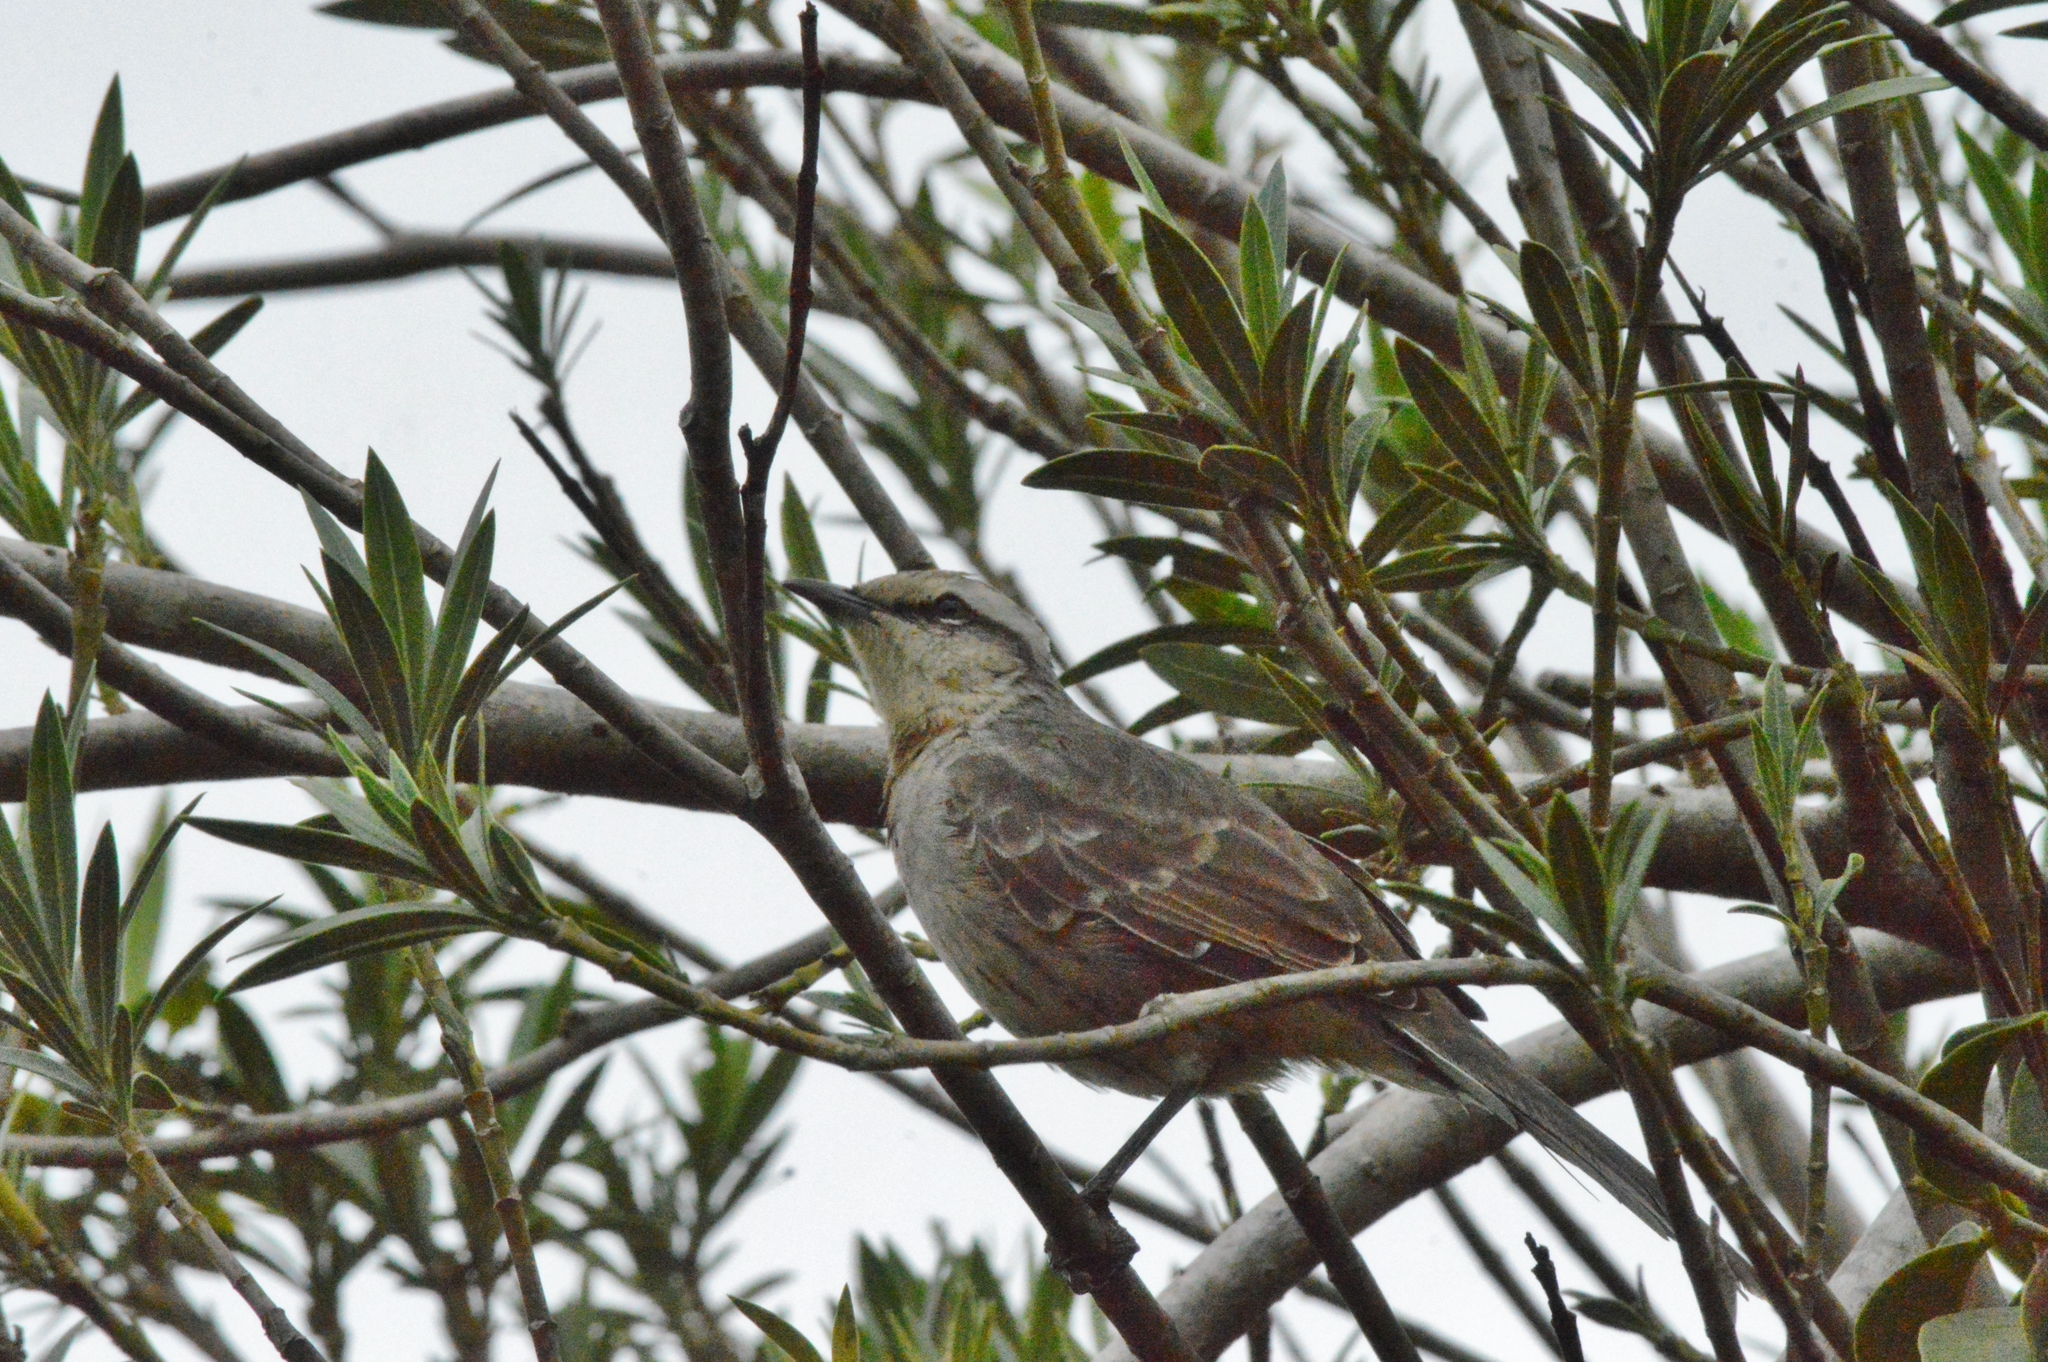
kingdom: Animalia
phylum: Chordata
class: Aves
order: Passeriformes
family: Mimidae
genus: Mimus
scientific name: Mimus saturninus
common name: Chalk-browed mockingbird
